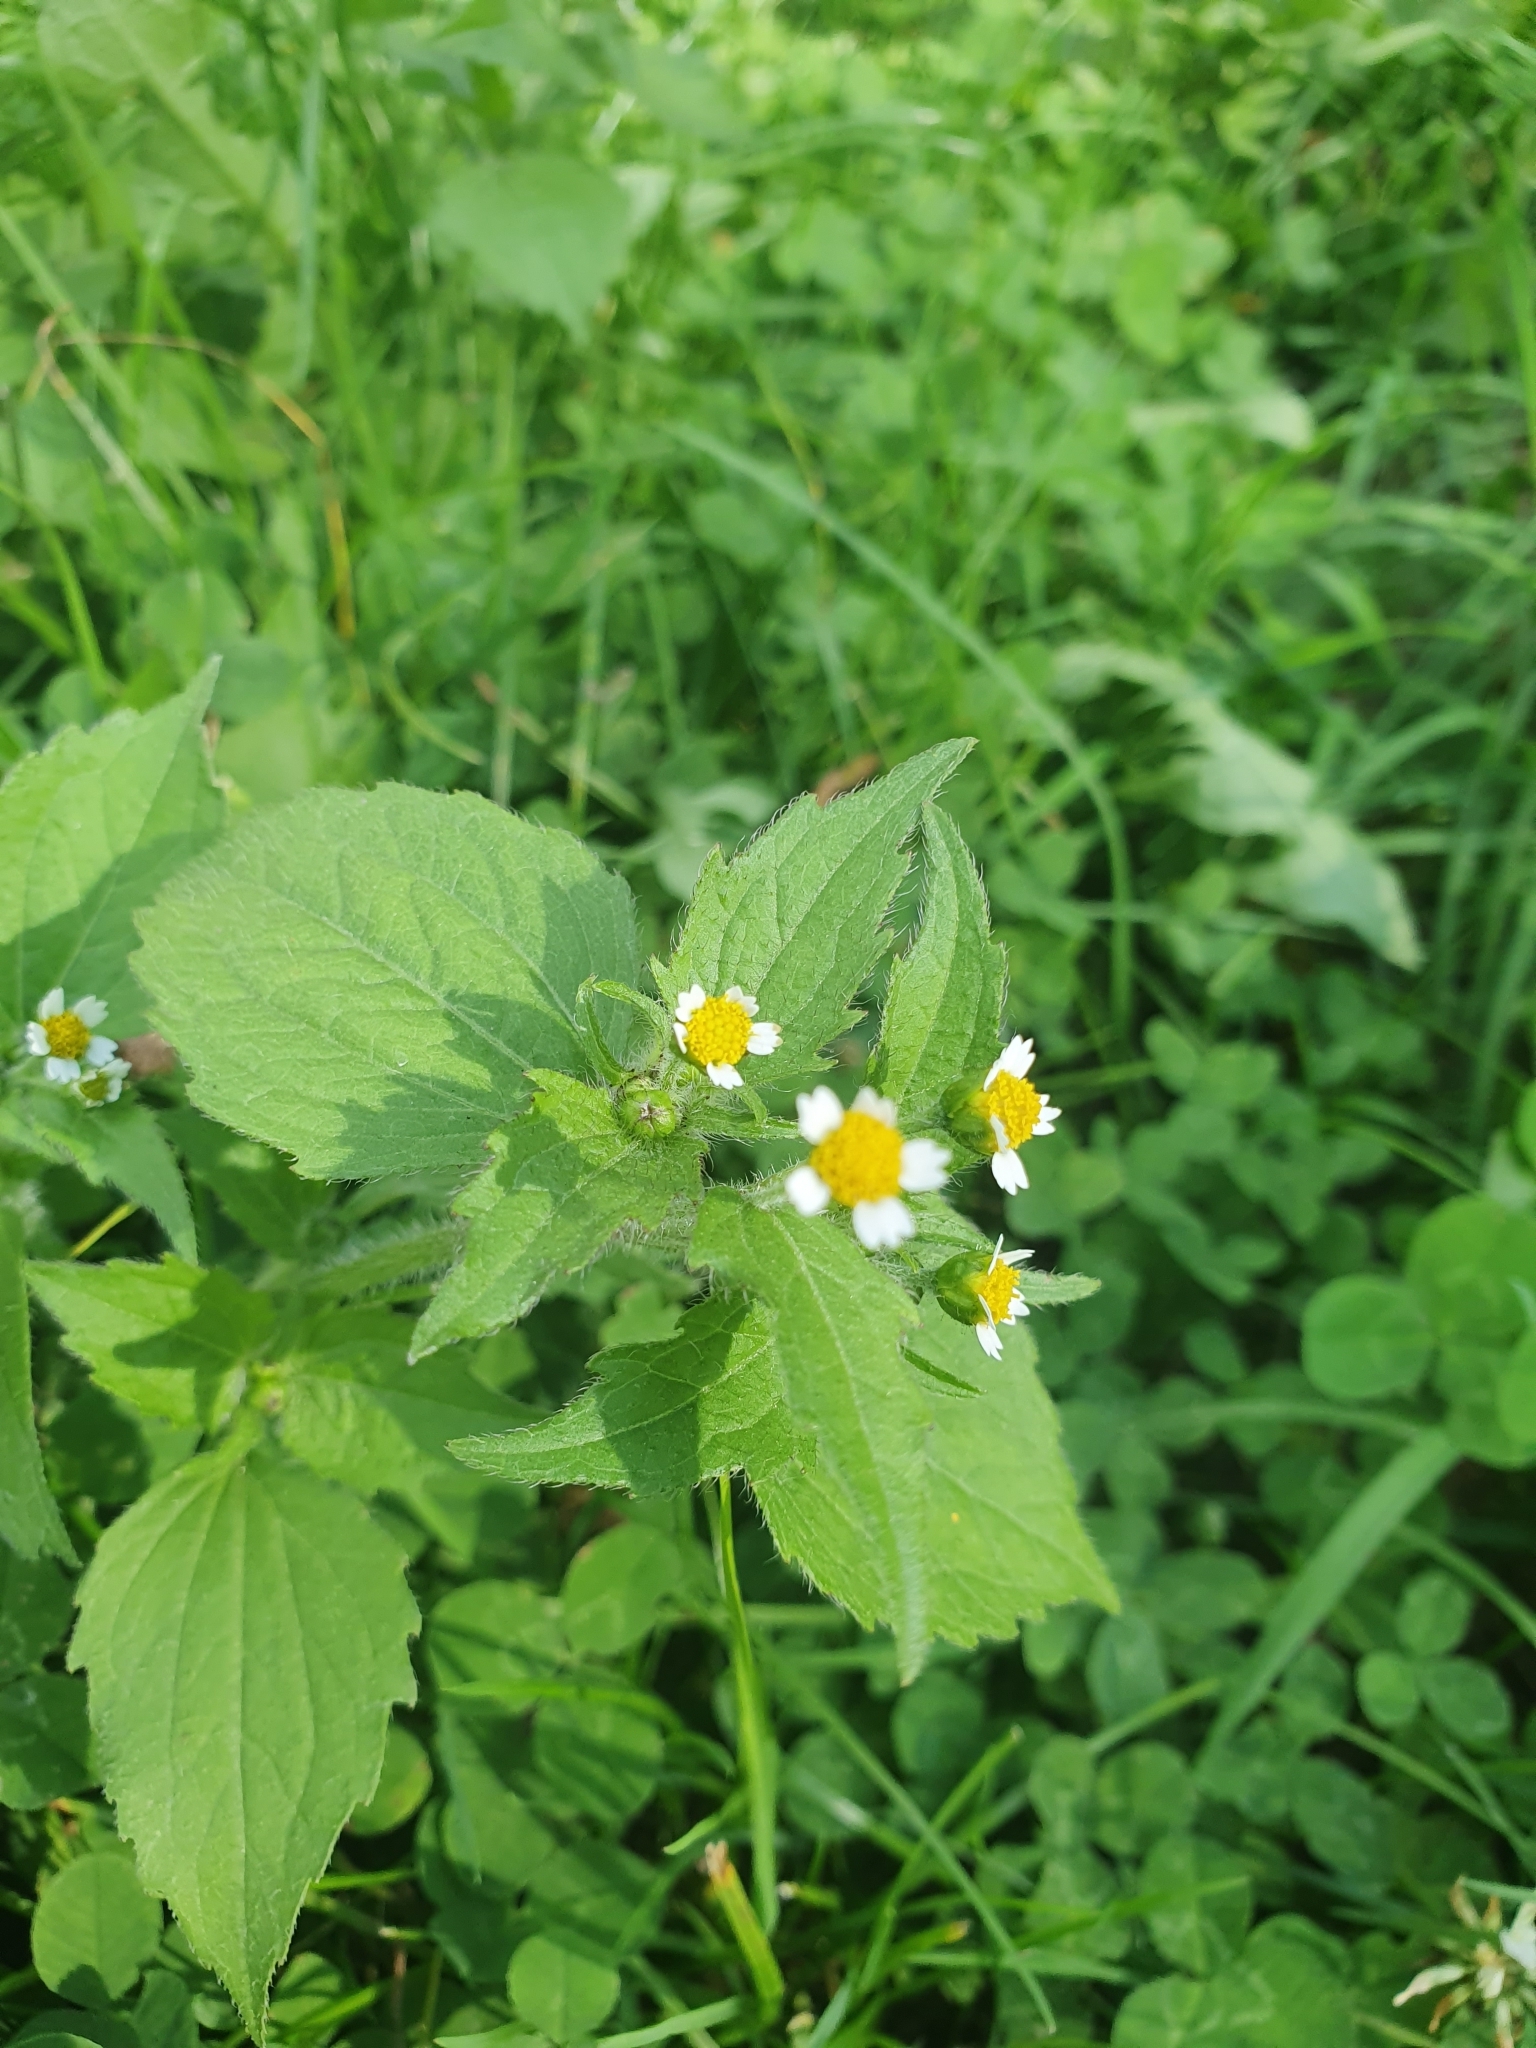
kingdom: Plantae
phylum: Tracheophyta
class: Magnoliopsida
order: Asterales
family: Asteraceae
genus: Galinsoga
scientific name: Galinsoga quadriradiata
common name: Shaggy soldier
